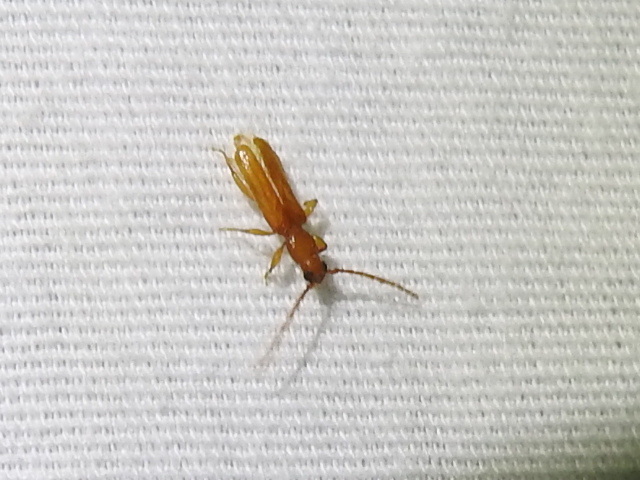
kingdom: Animalia
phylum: Arthropoda
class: Insecta
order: Coleoptera
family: Cerambycidae
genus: Smodicum
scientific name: Smodicum cucujiforme
